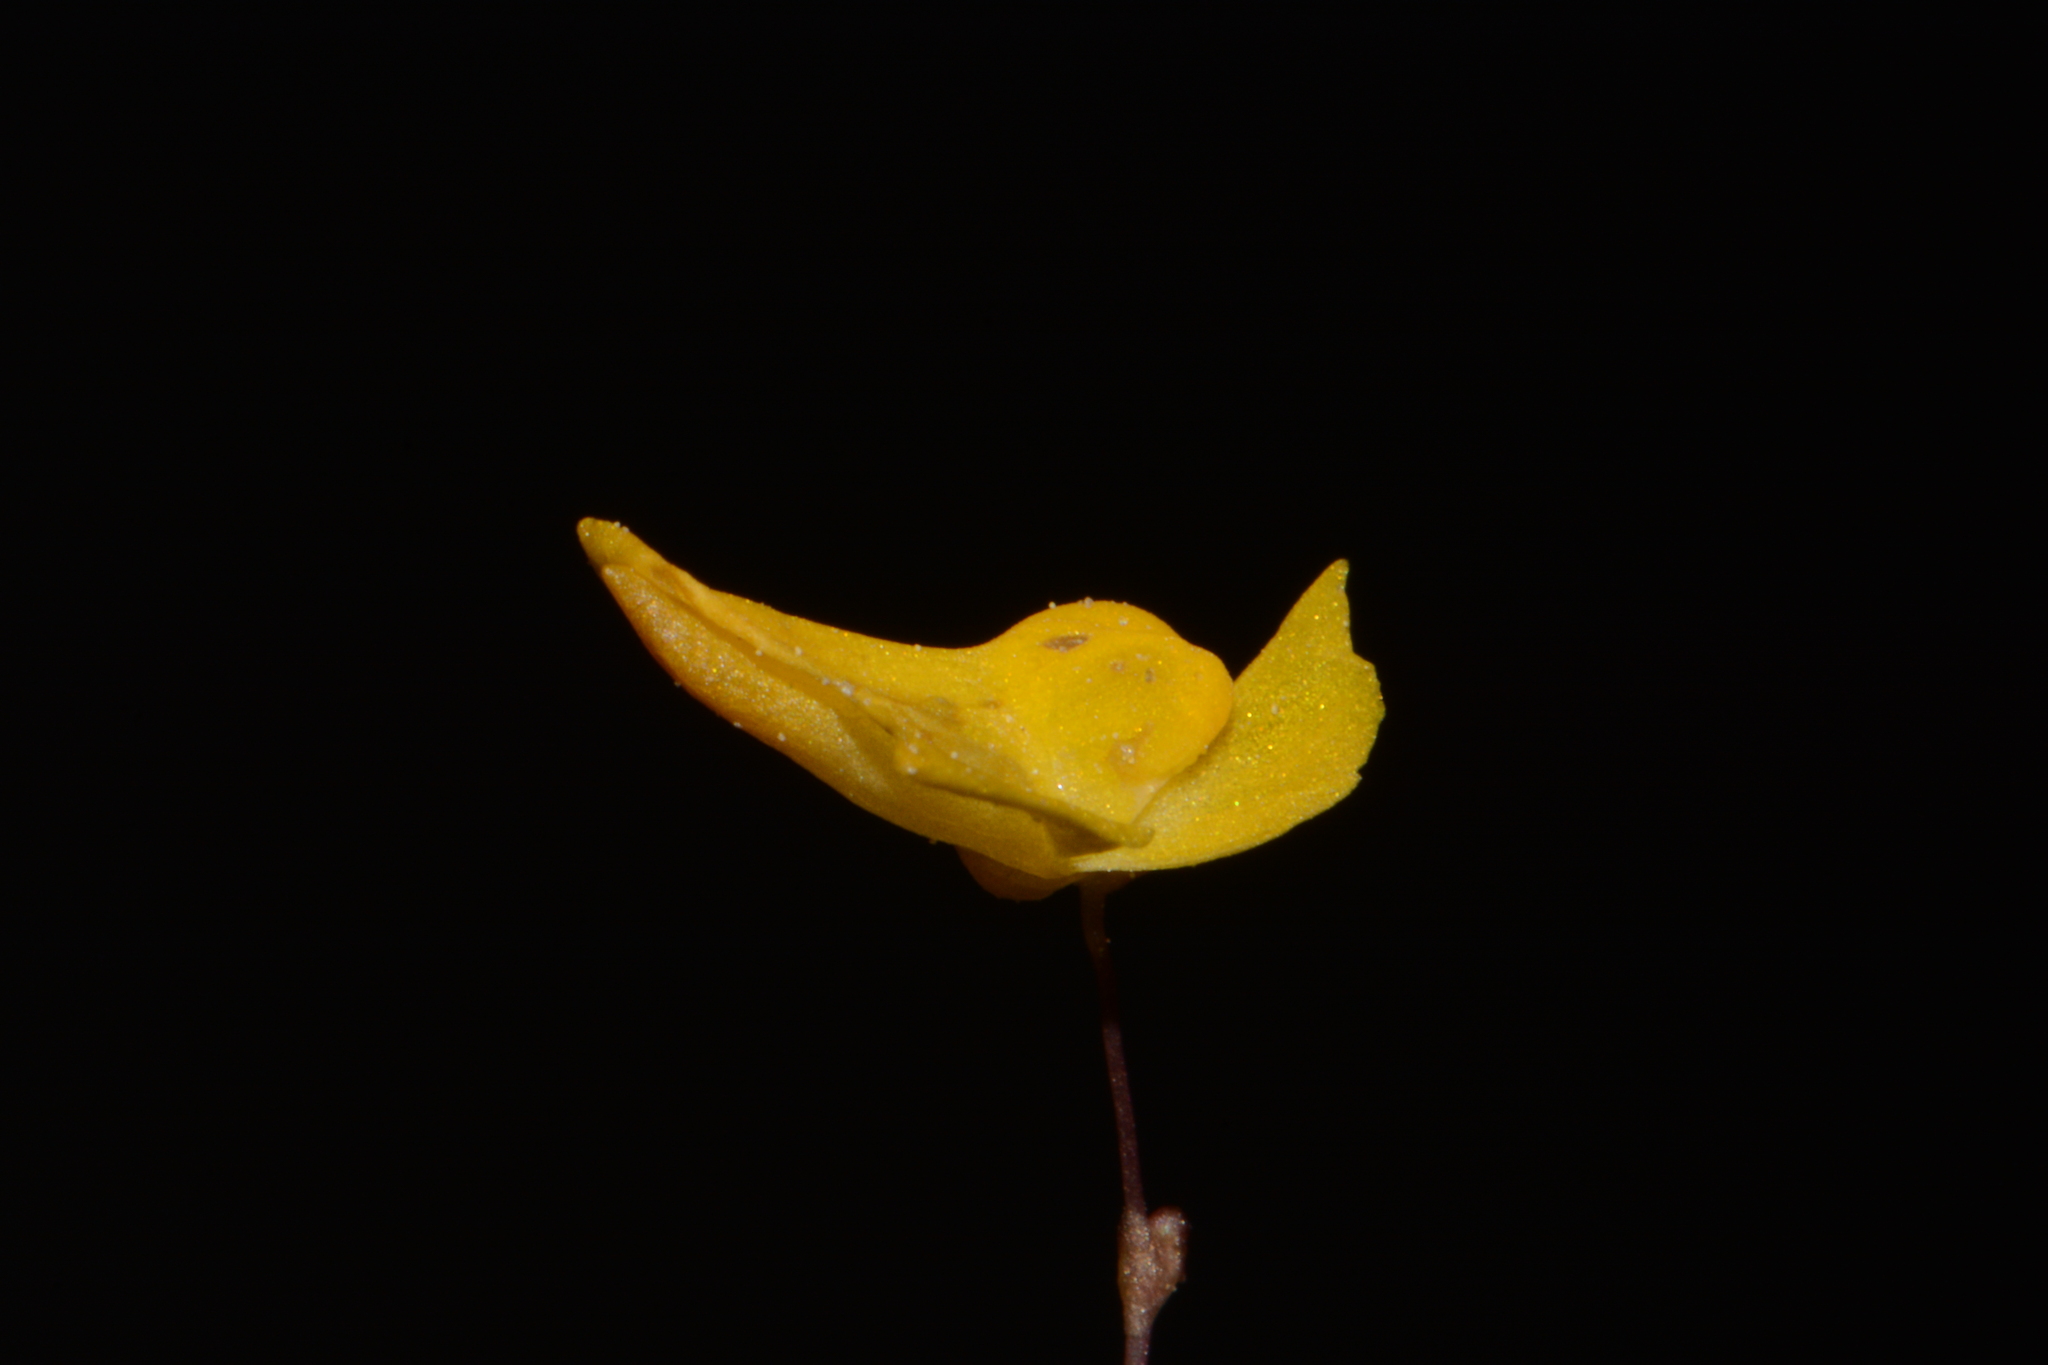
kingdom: Plantae
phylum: Tracheophyta
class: Magnoliopsida
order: Lamiales
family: Lentibulariaceae
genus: Utricularia
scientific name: Utricularia subulata
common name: Tiny bladderwort
